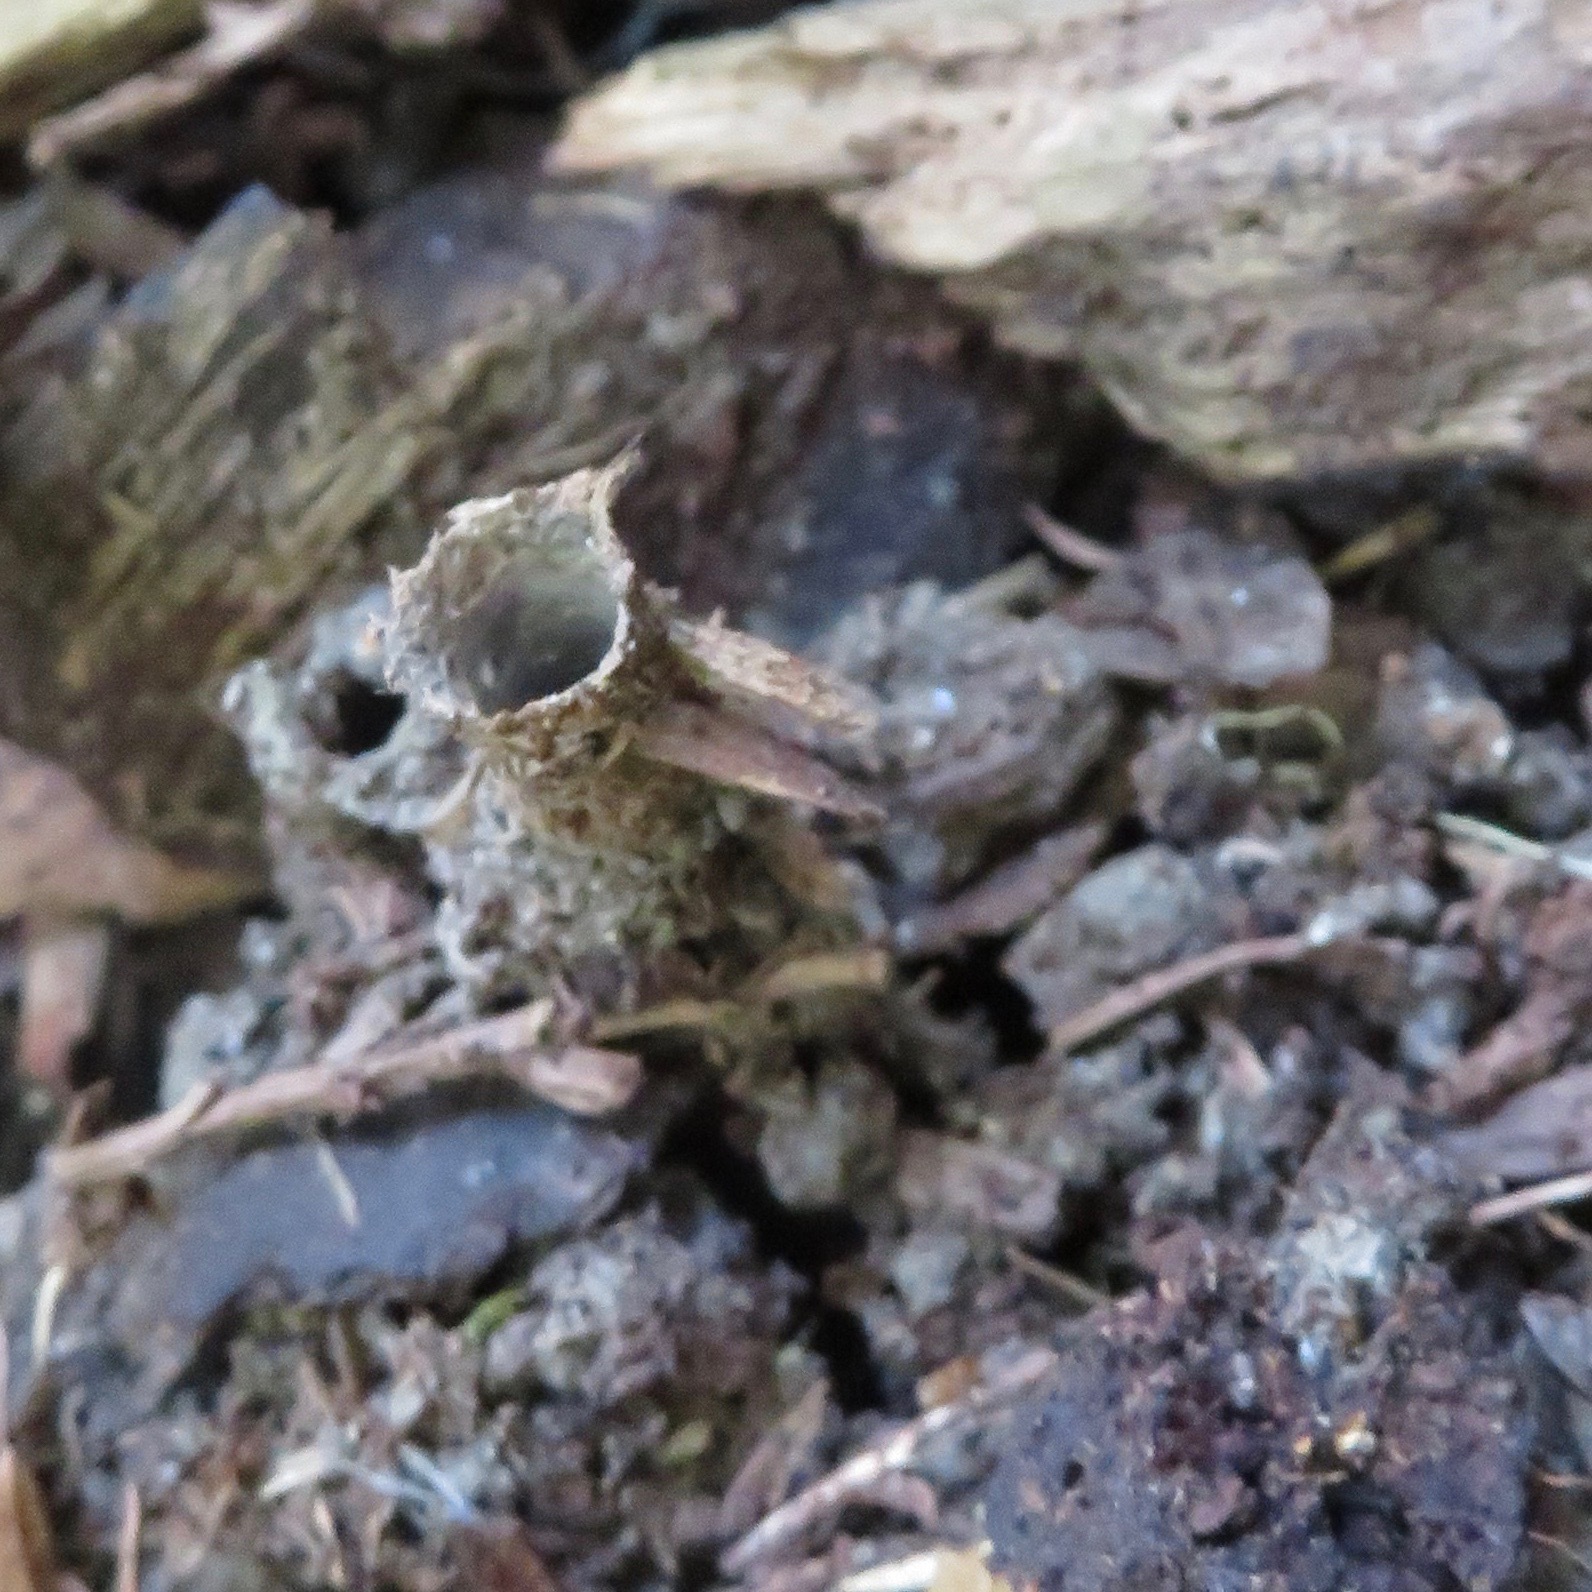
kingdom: Animalia
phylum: Arthropoda
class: Arachnida
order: Araneae
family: Antrodiaetidae
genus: Atypoides
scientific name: Atypoides riversi
